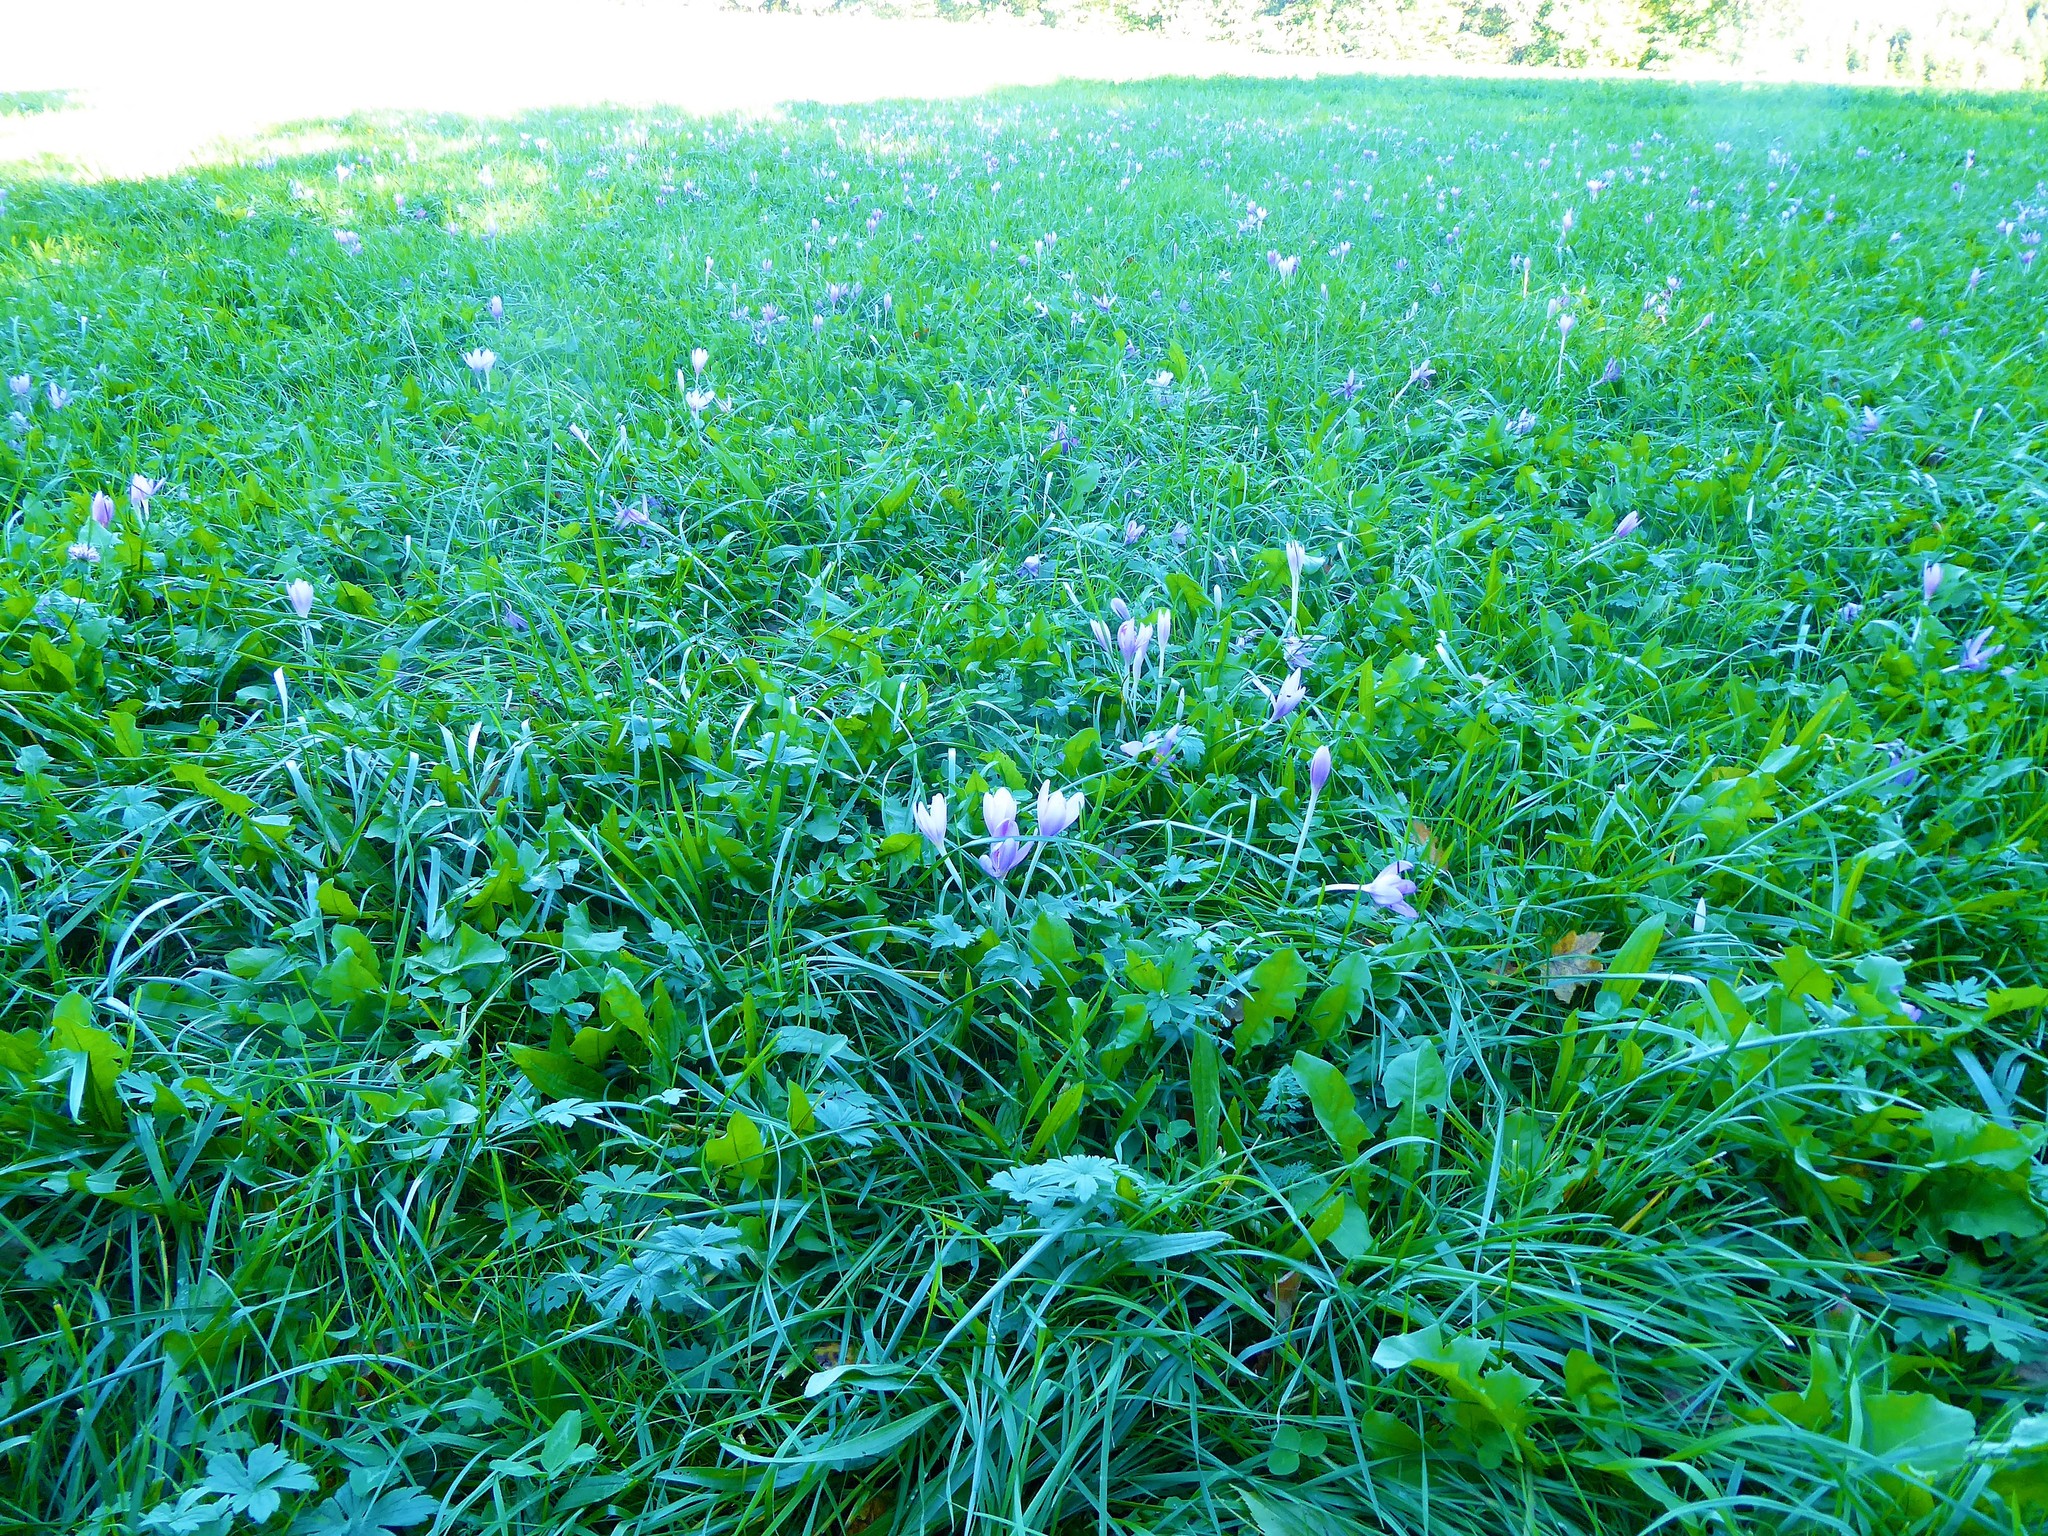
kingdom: Plantae
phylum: Tracheophyta
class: Liliopsida
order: Liliales
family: Colchicaceae
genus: Colchicum
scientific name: Colchicum autumnale
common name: Autumn crocus
